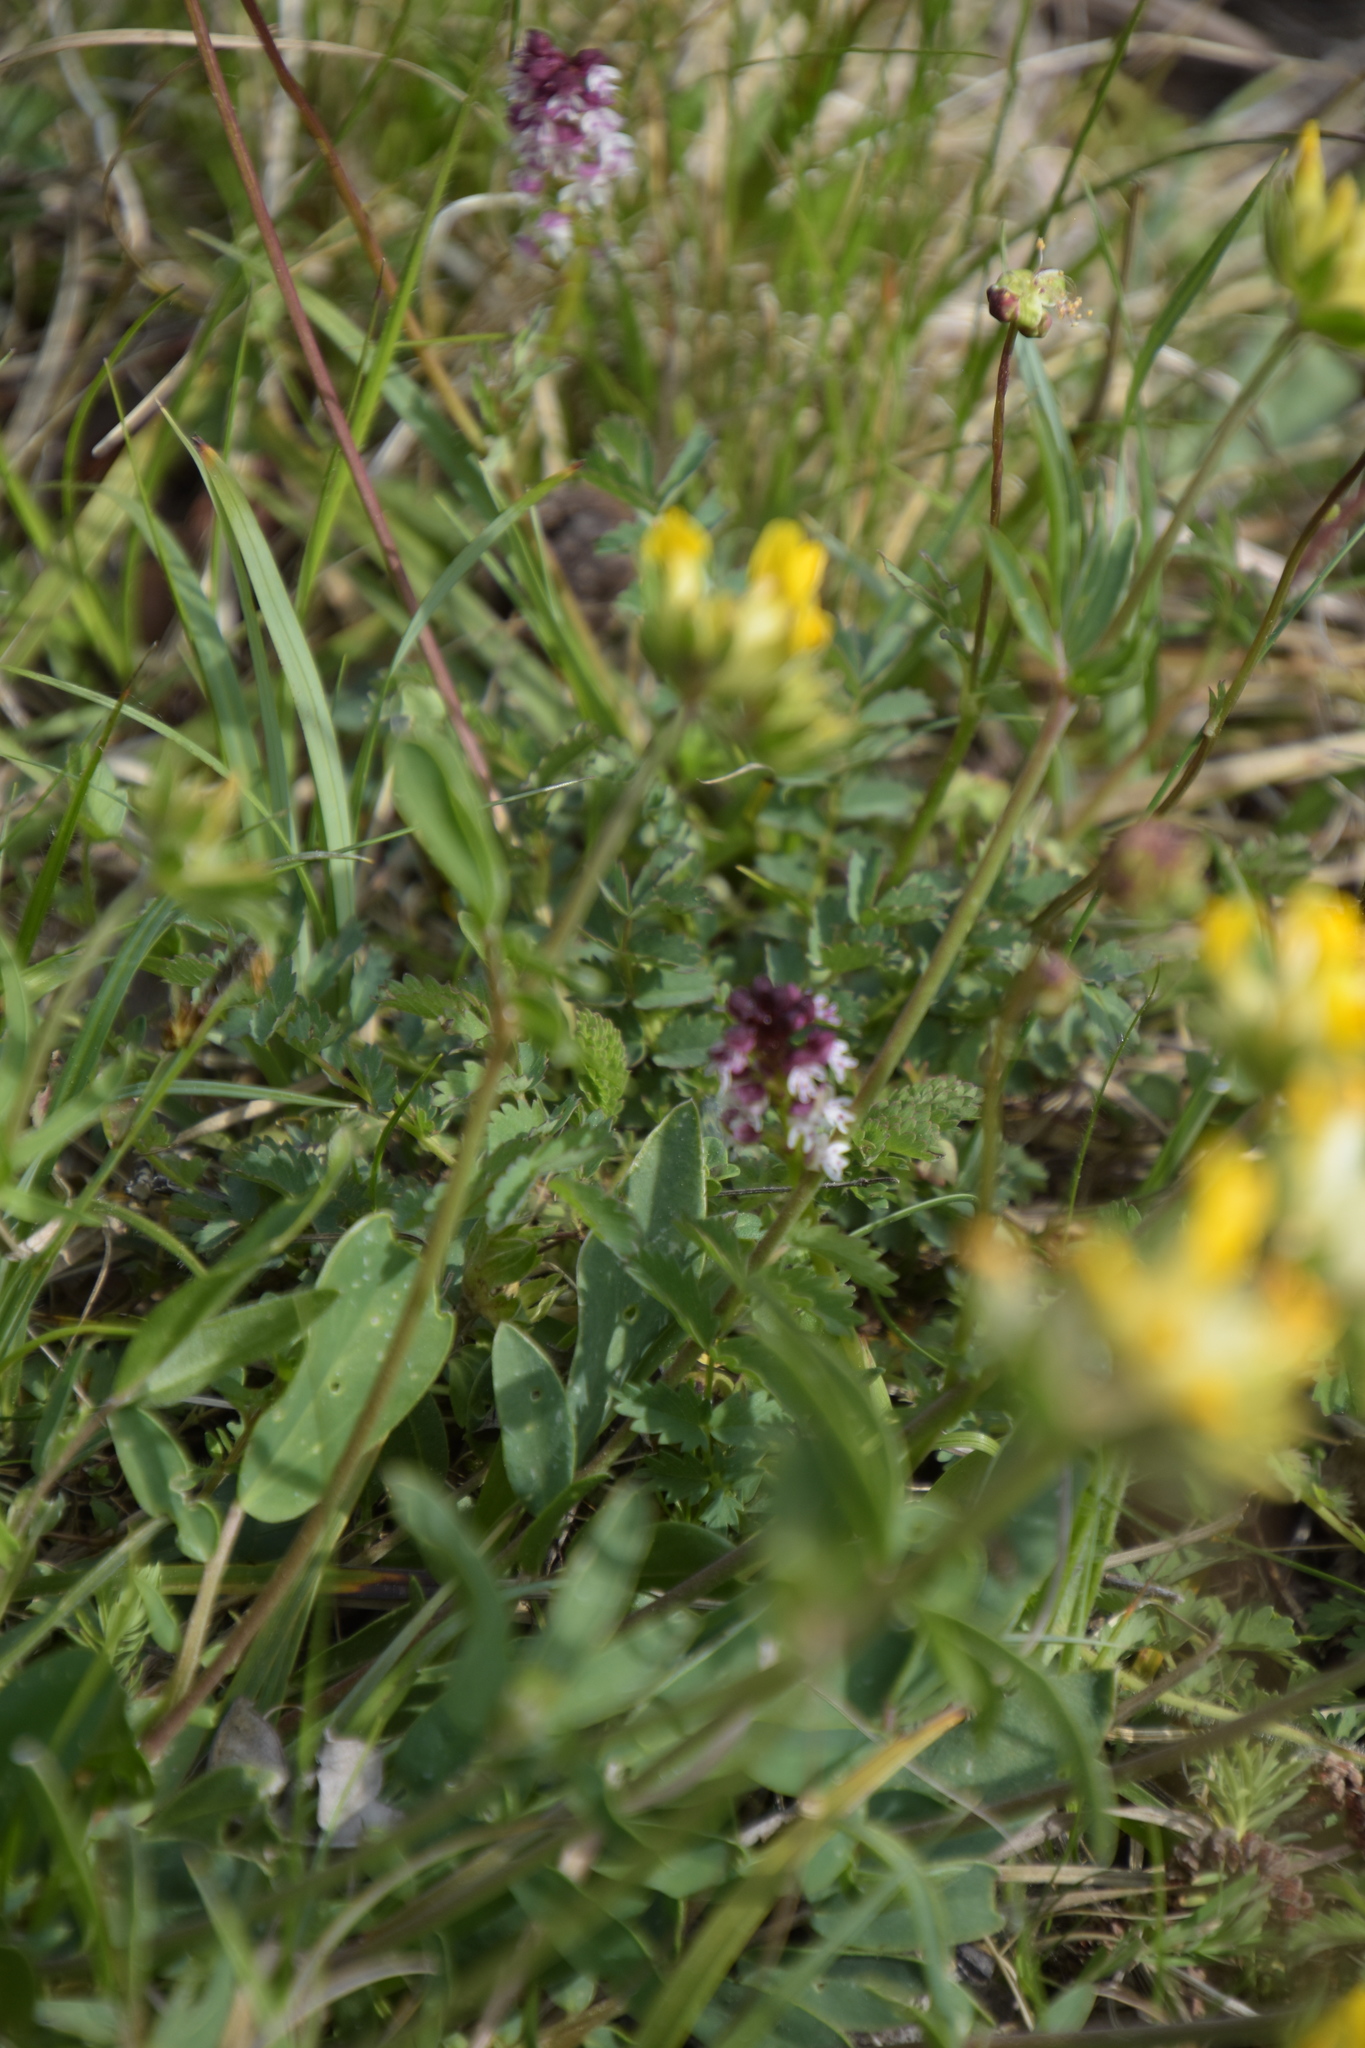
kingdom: Plantae
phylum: Tracheophyta
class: Liliopsida
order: Asparagales
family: Orchidaceae
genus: Neotinea
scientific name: Neotinea ustulata
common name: Burnt orchid
